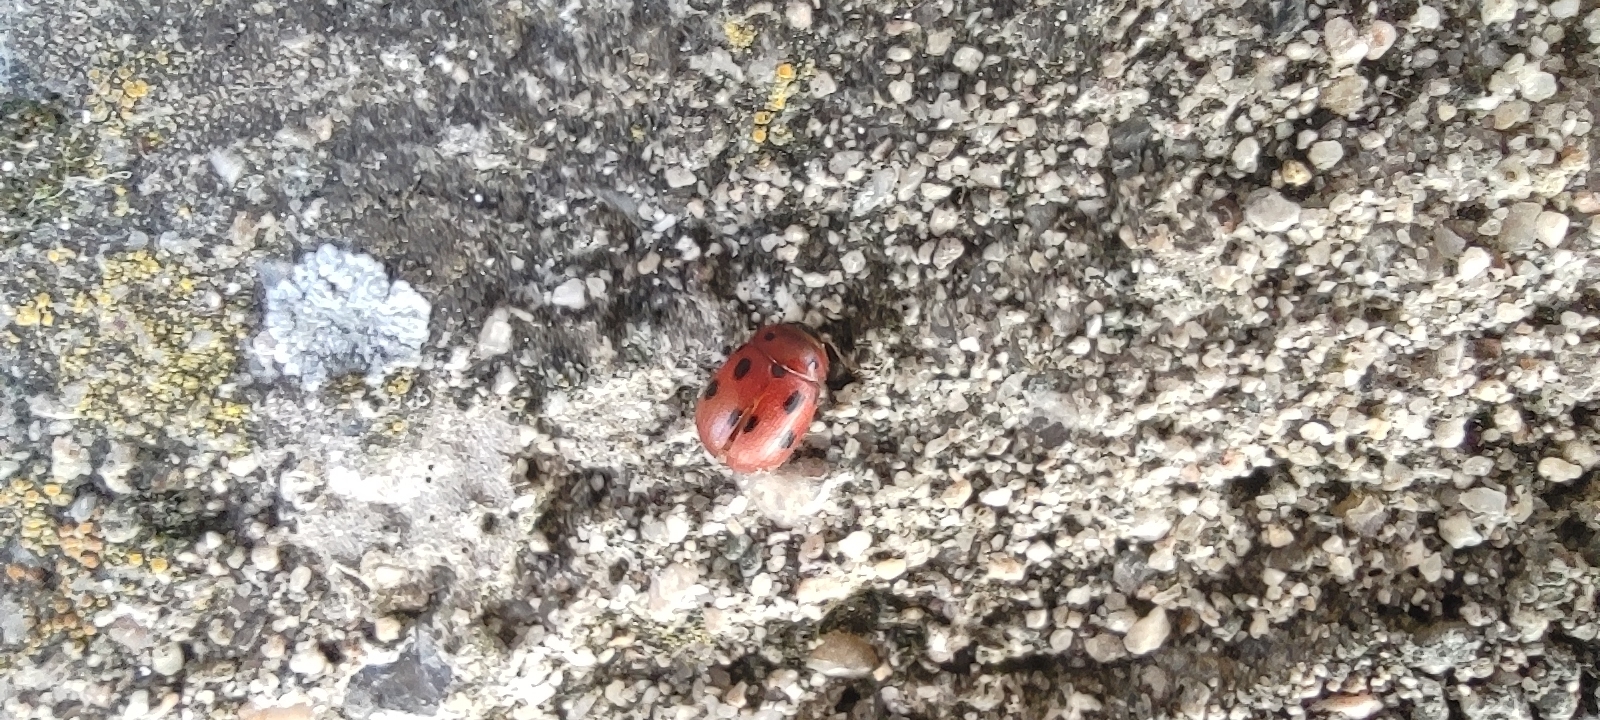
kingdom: Animalia
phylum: Arthropoda
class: Insecta
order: Coleoptera
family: Chrysomelidae
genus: Gonioctena
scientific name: Gonioctena fornicata
